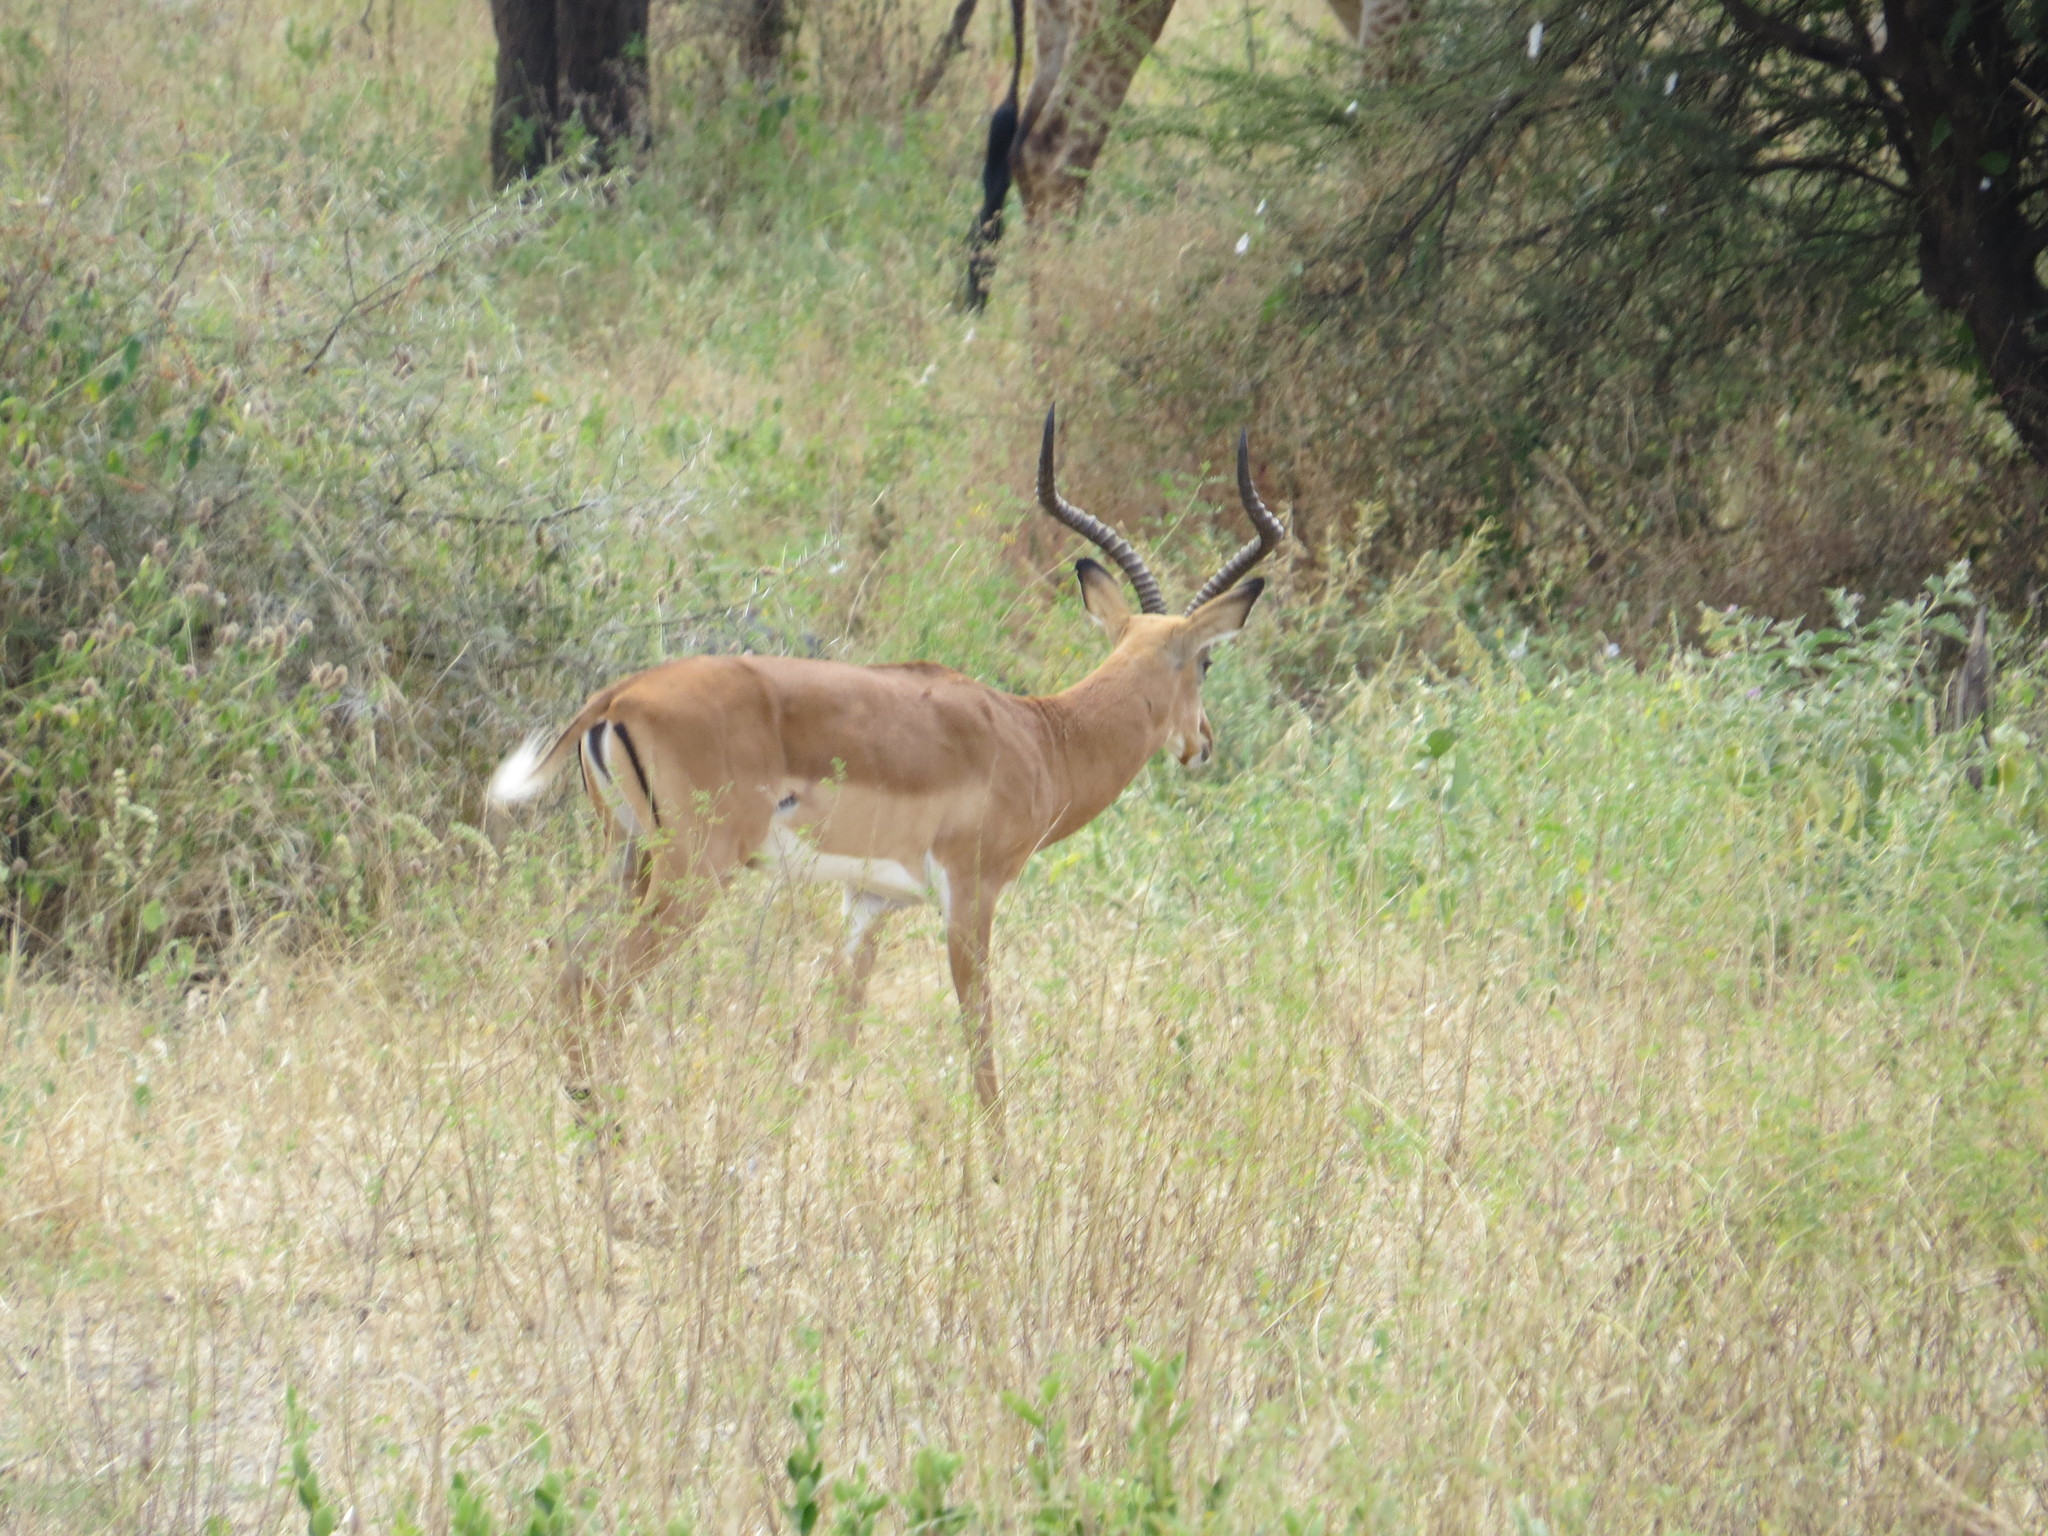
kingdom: Animalia
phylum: Chordata
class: Mammalia
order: Artiodactyla
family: Bovidae
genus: Aepyceros
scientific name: Aepyceros melampus
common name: Impala
